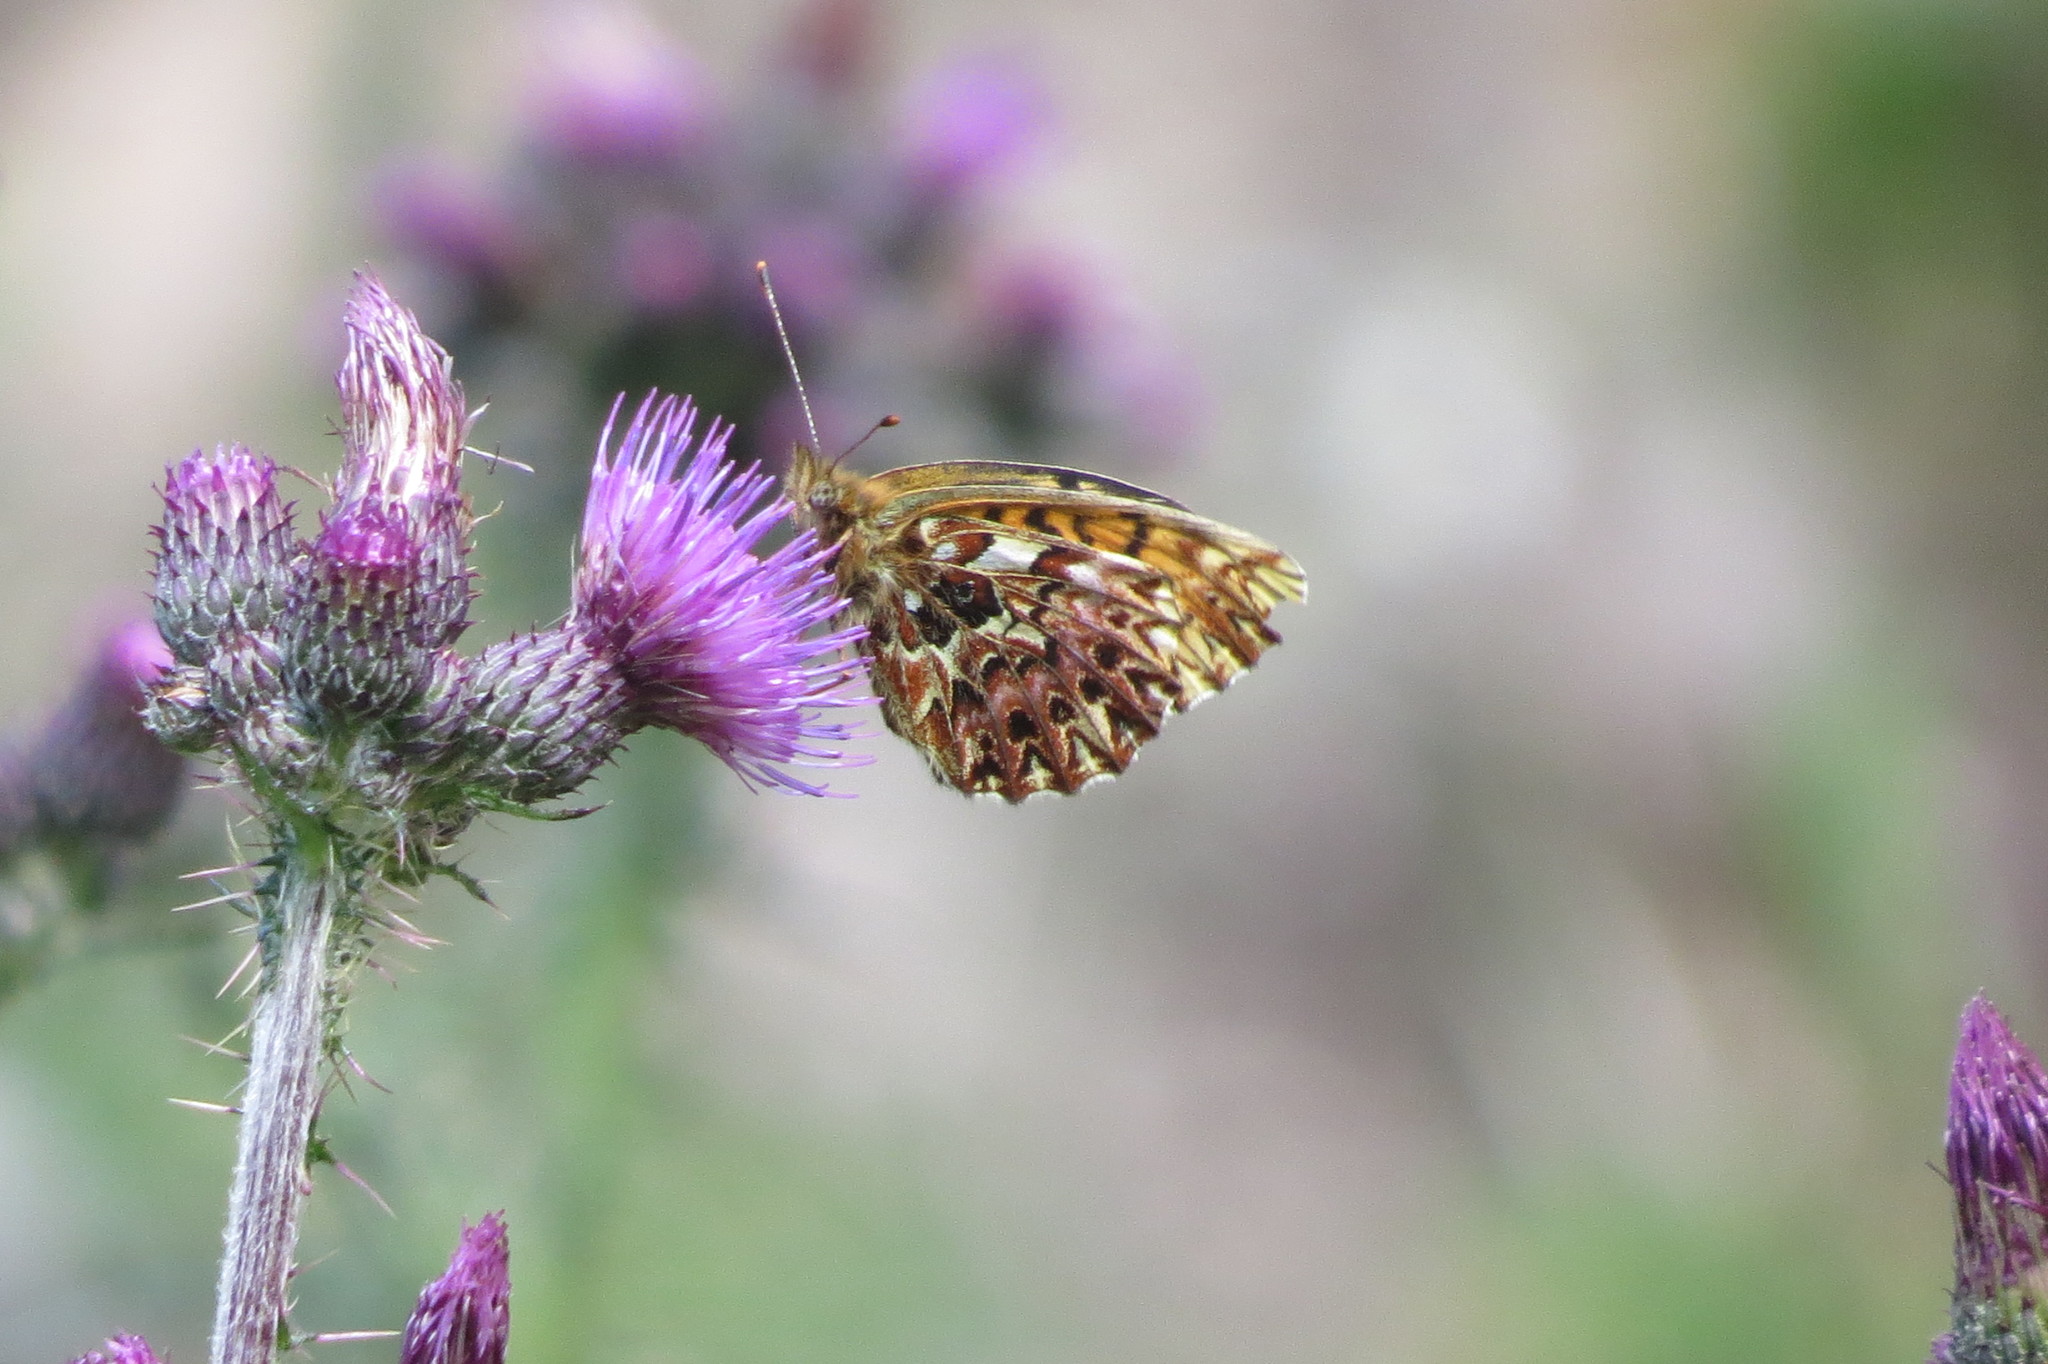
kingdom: Animalia
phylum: Arthropoda
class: Insecta
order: Lepidoptera
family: Nymphalidae
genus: Boloria
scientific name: Boloria titania
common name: Titania's fritillary
